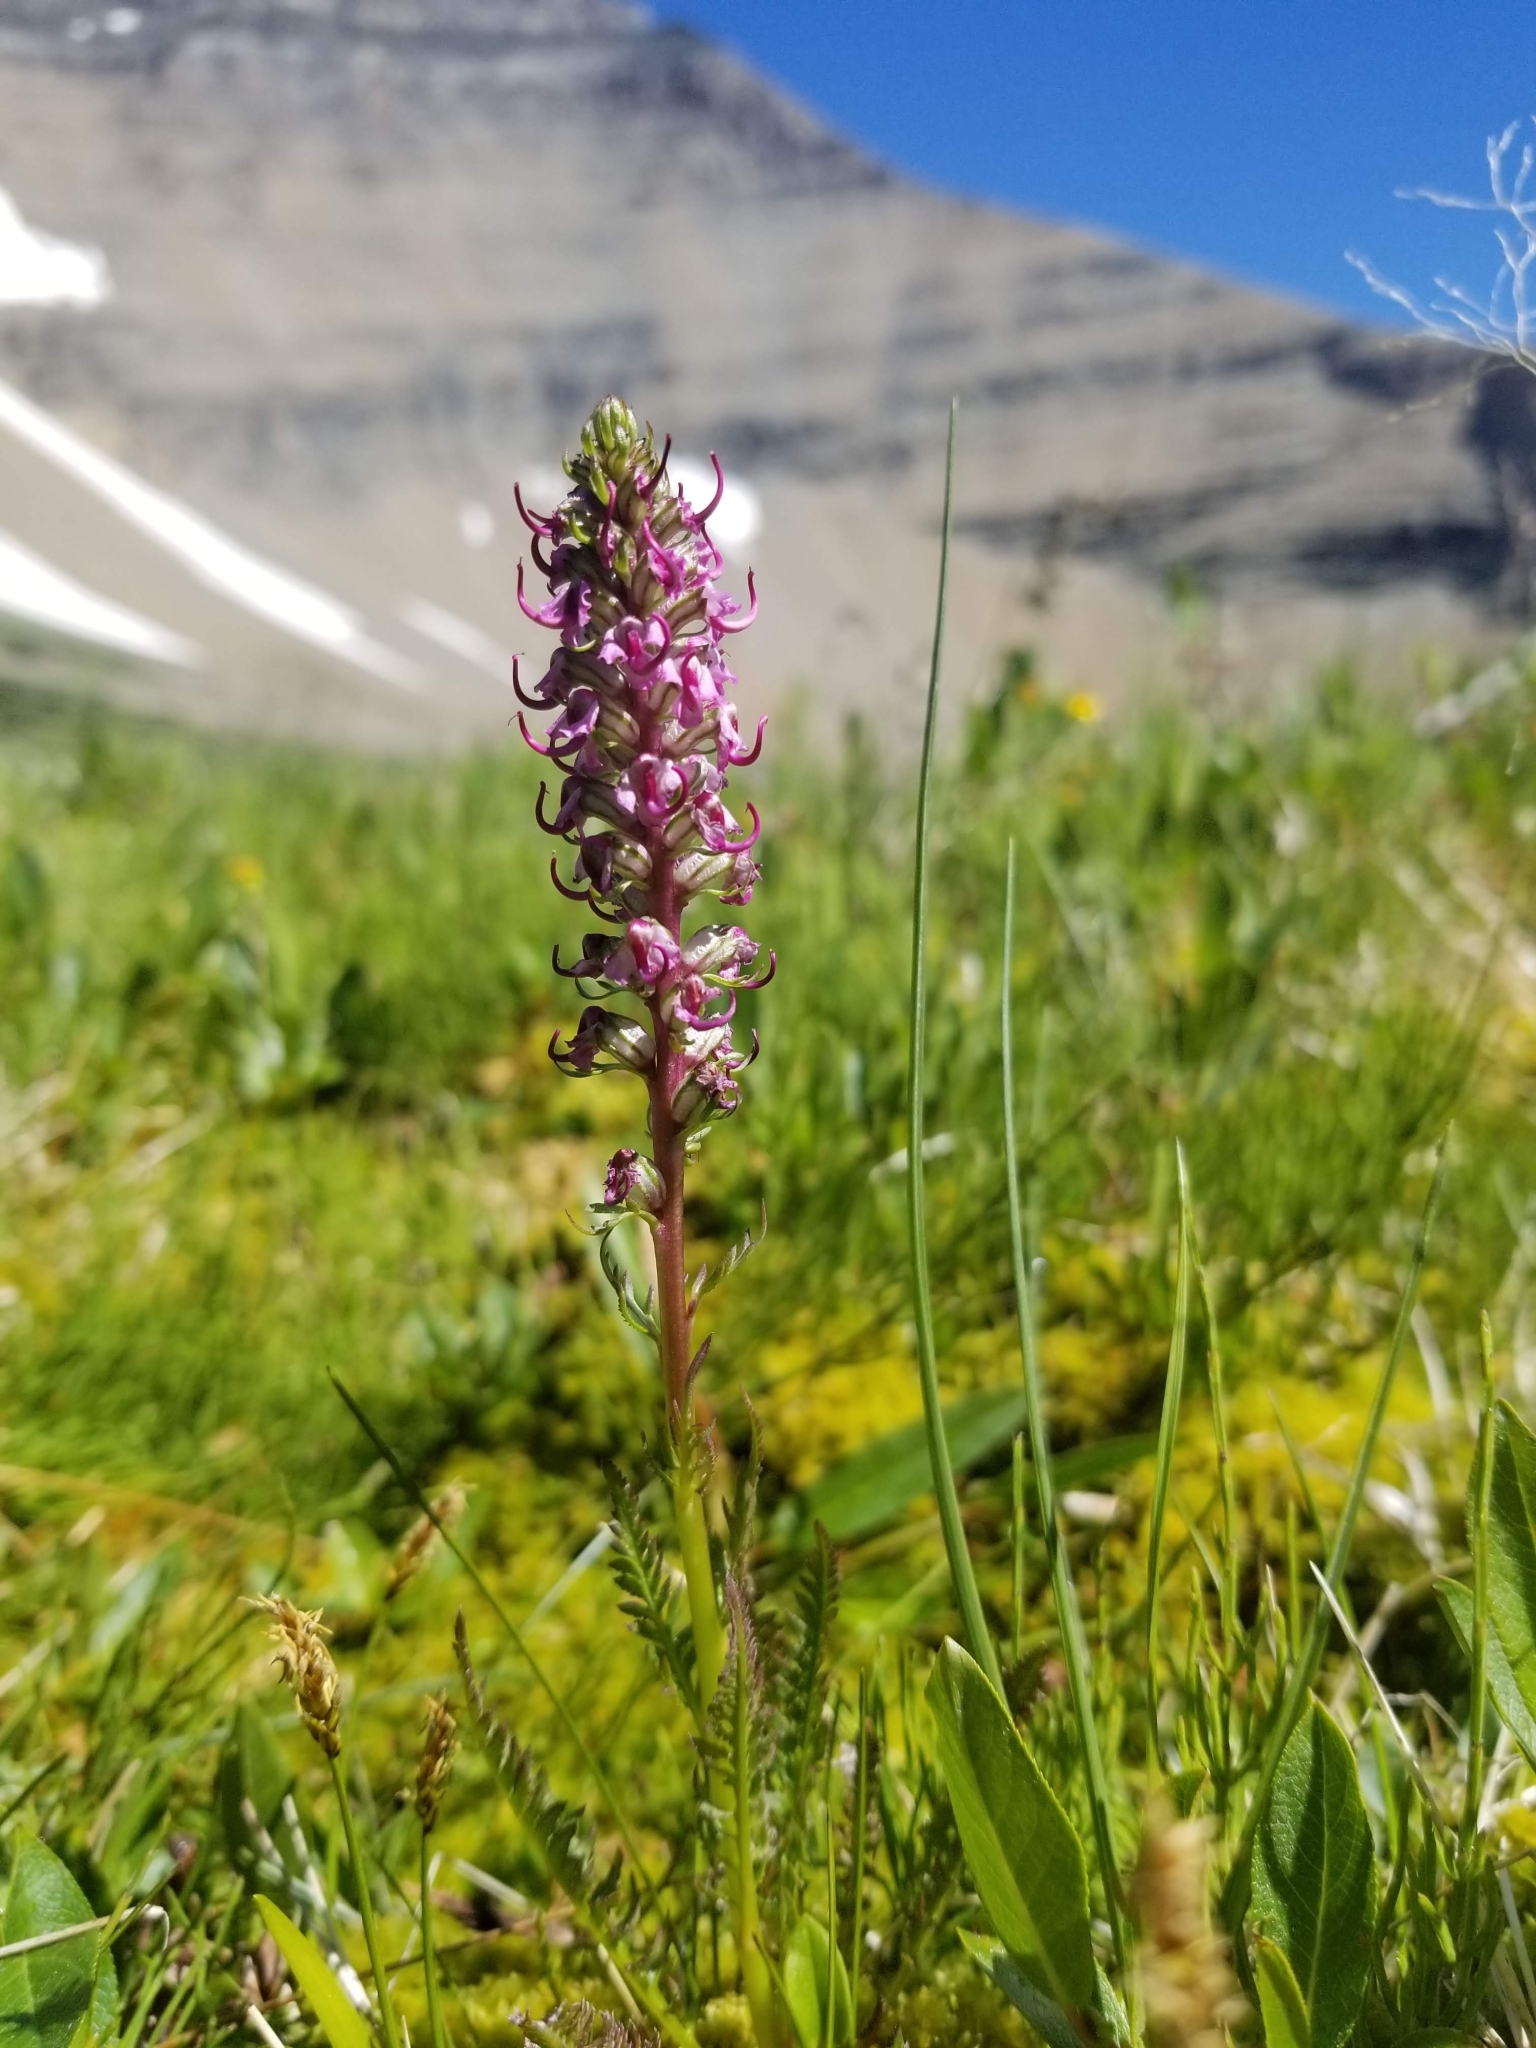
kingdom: Plantae
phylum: Tracheophyta
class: Magnoliopsida
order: Lamiales
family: Orobanchaceae
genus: Pedicularis
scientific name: Pedicularis groenlandica
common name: Elephant's-head
